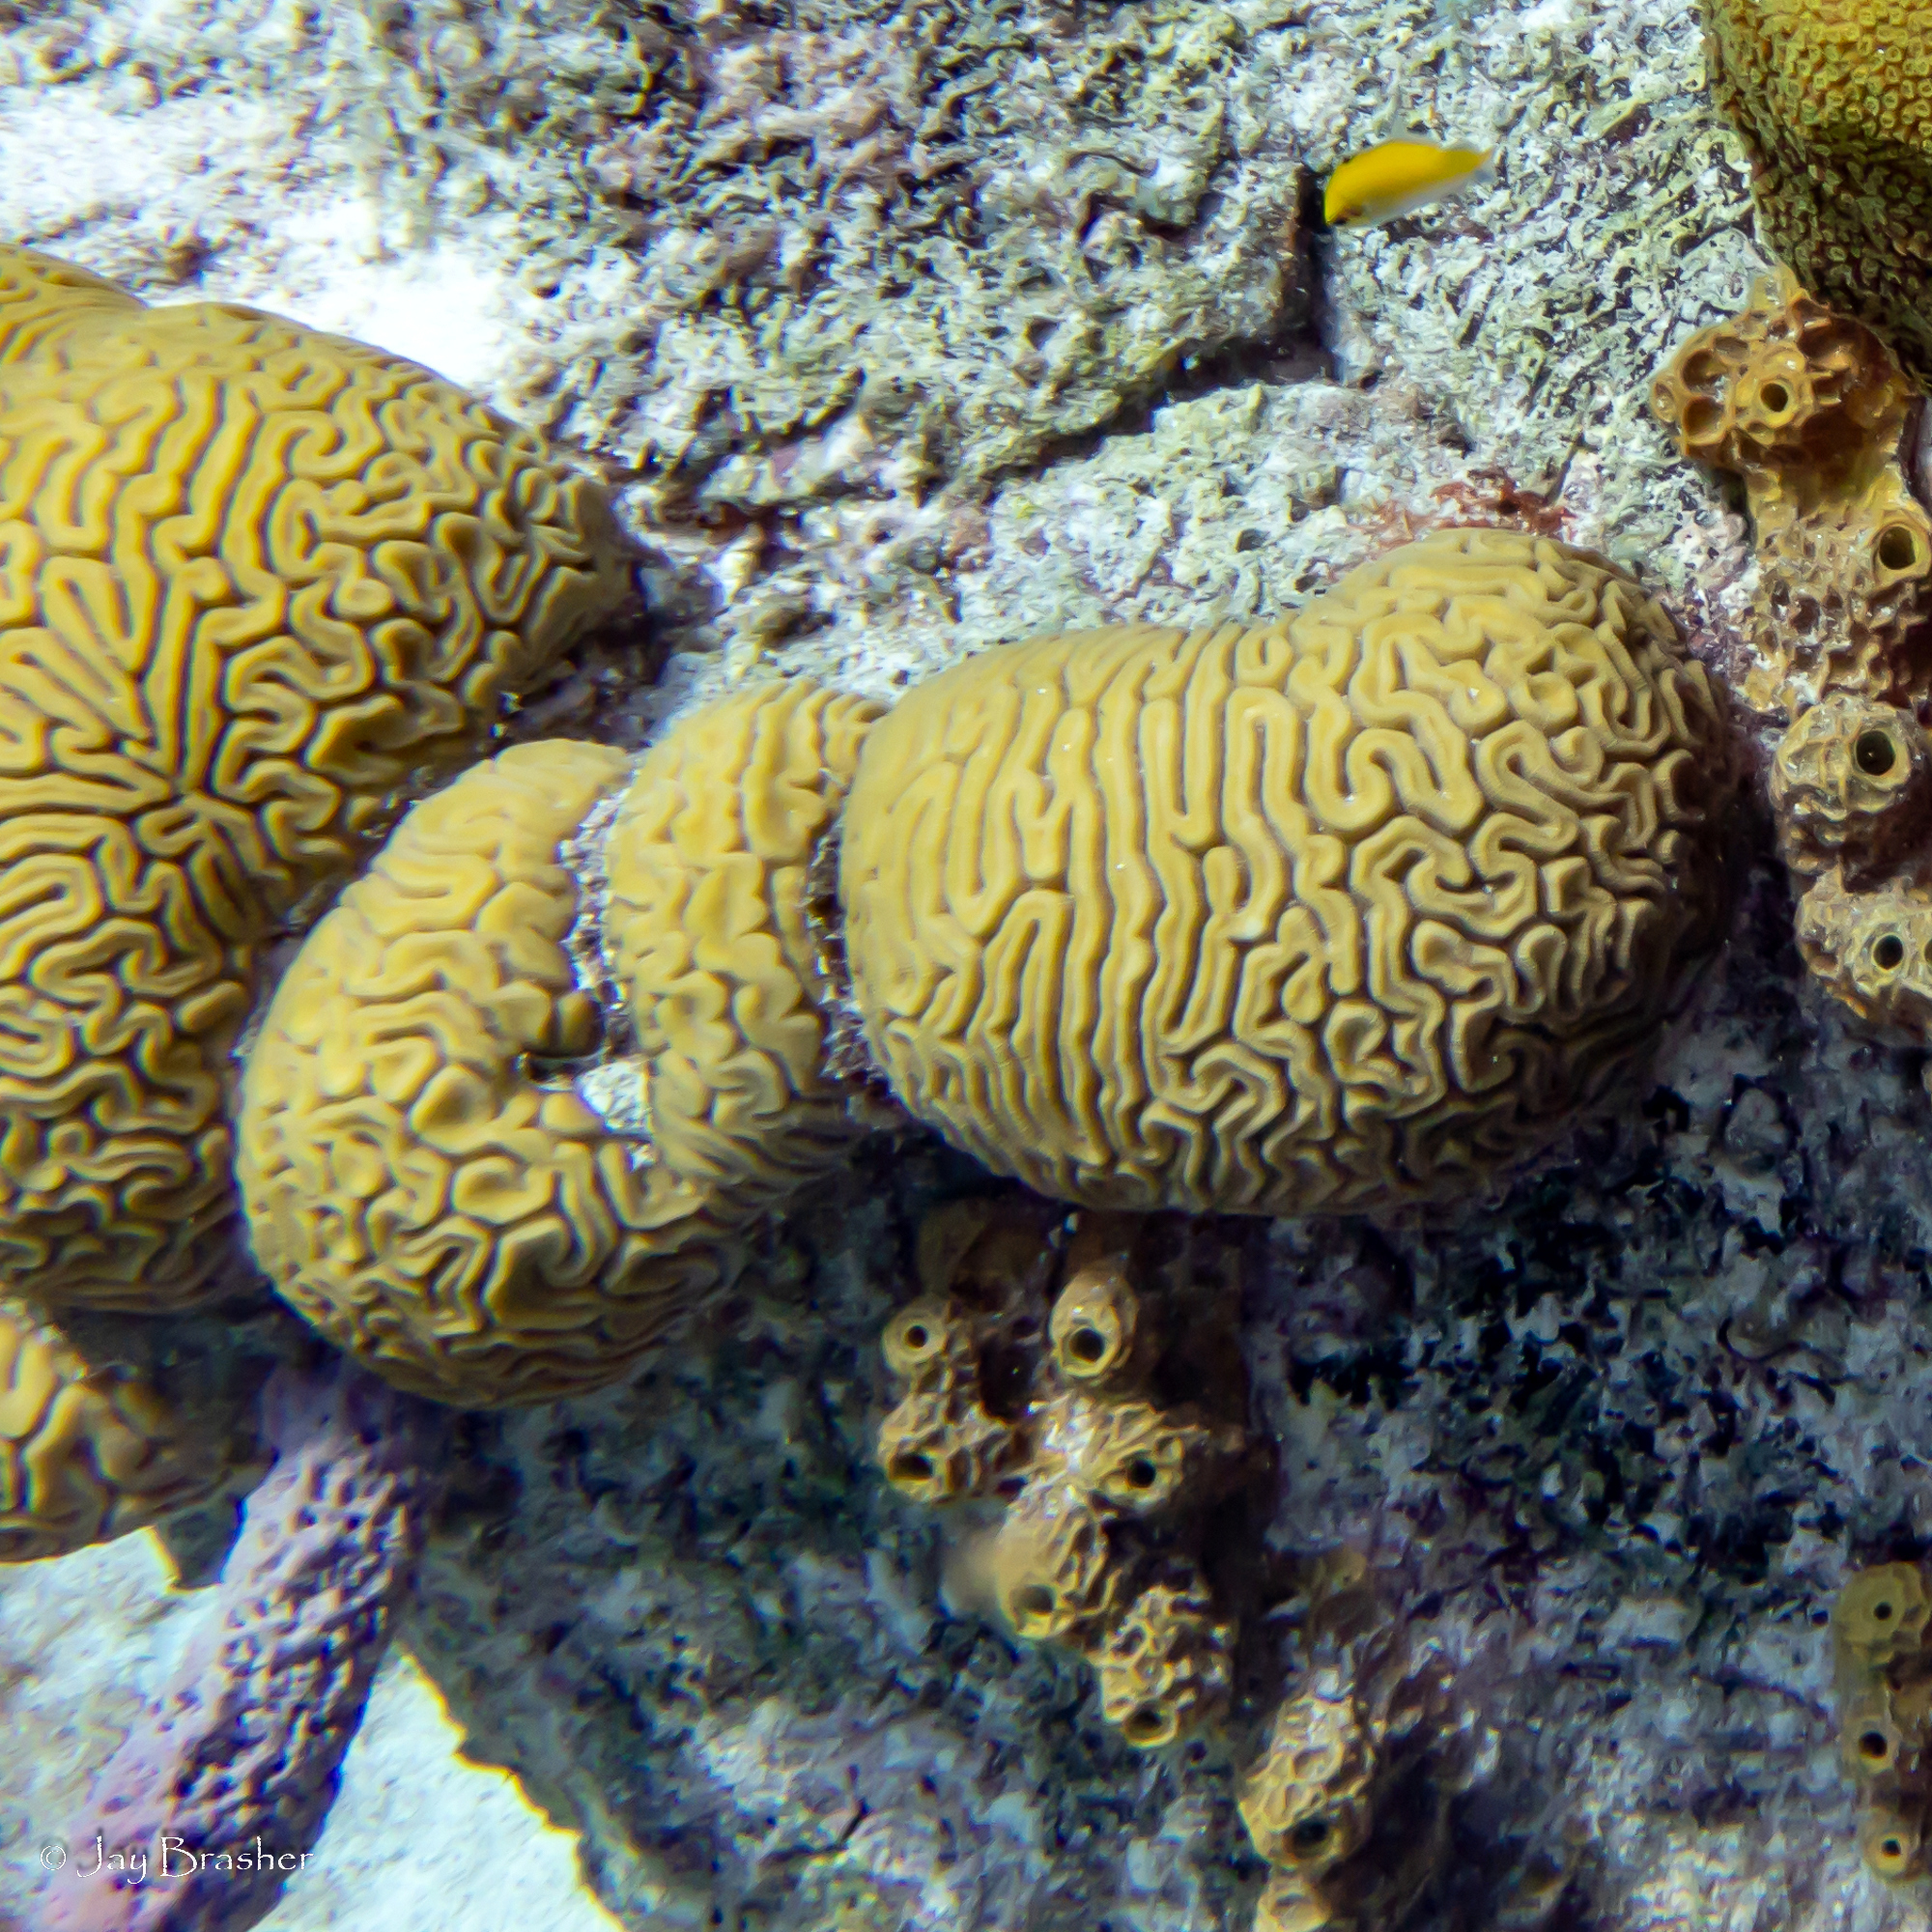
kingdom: Animalia
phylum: Cnidaria
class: Anthozoa
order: Scleractinia
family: Faviidae
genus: Diploria
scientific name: Diploria labyrinthiformis
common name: Grooved brain coral
